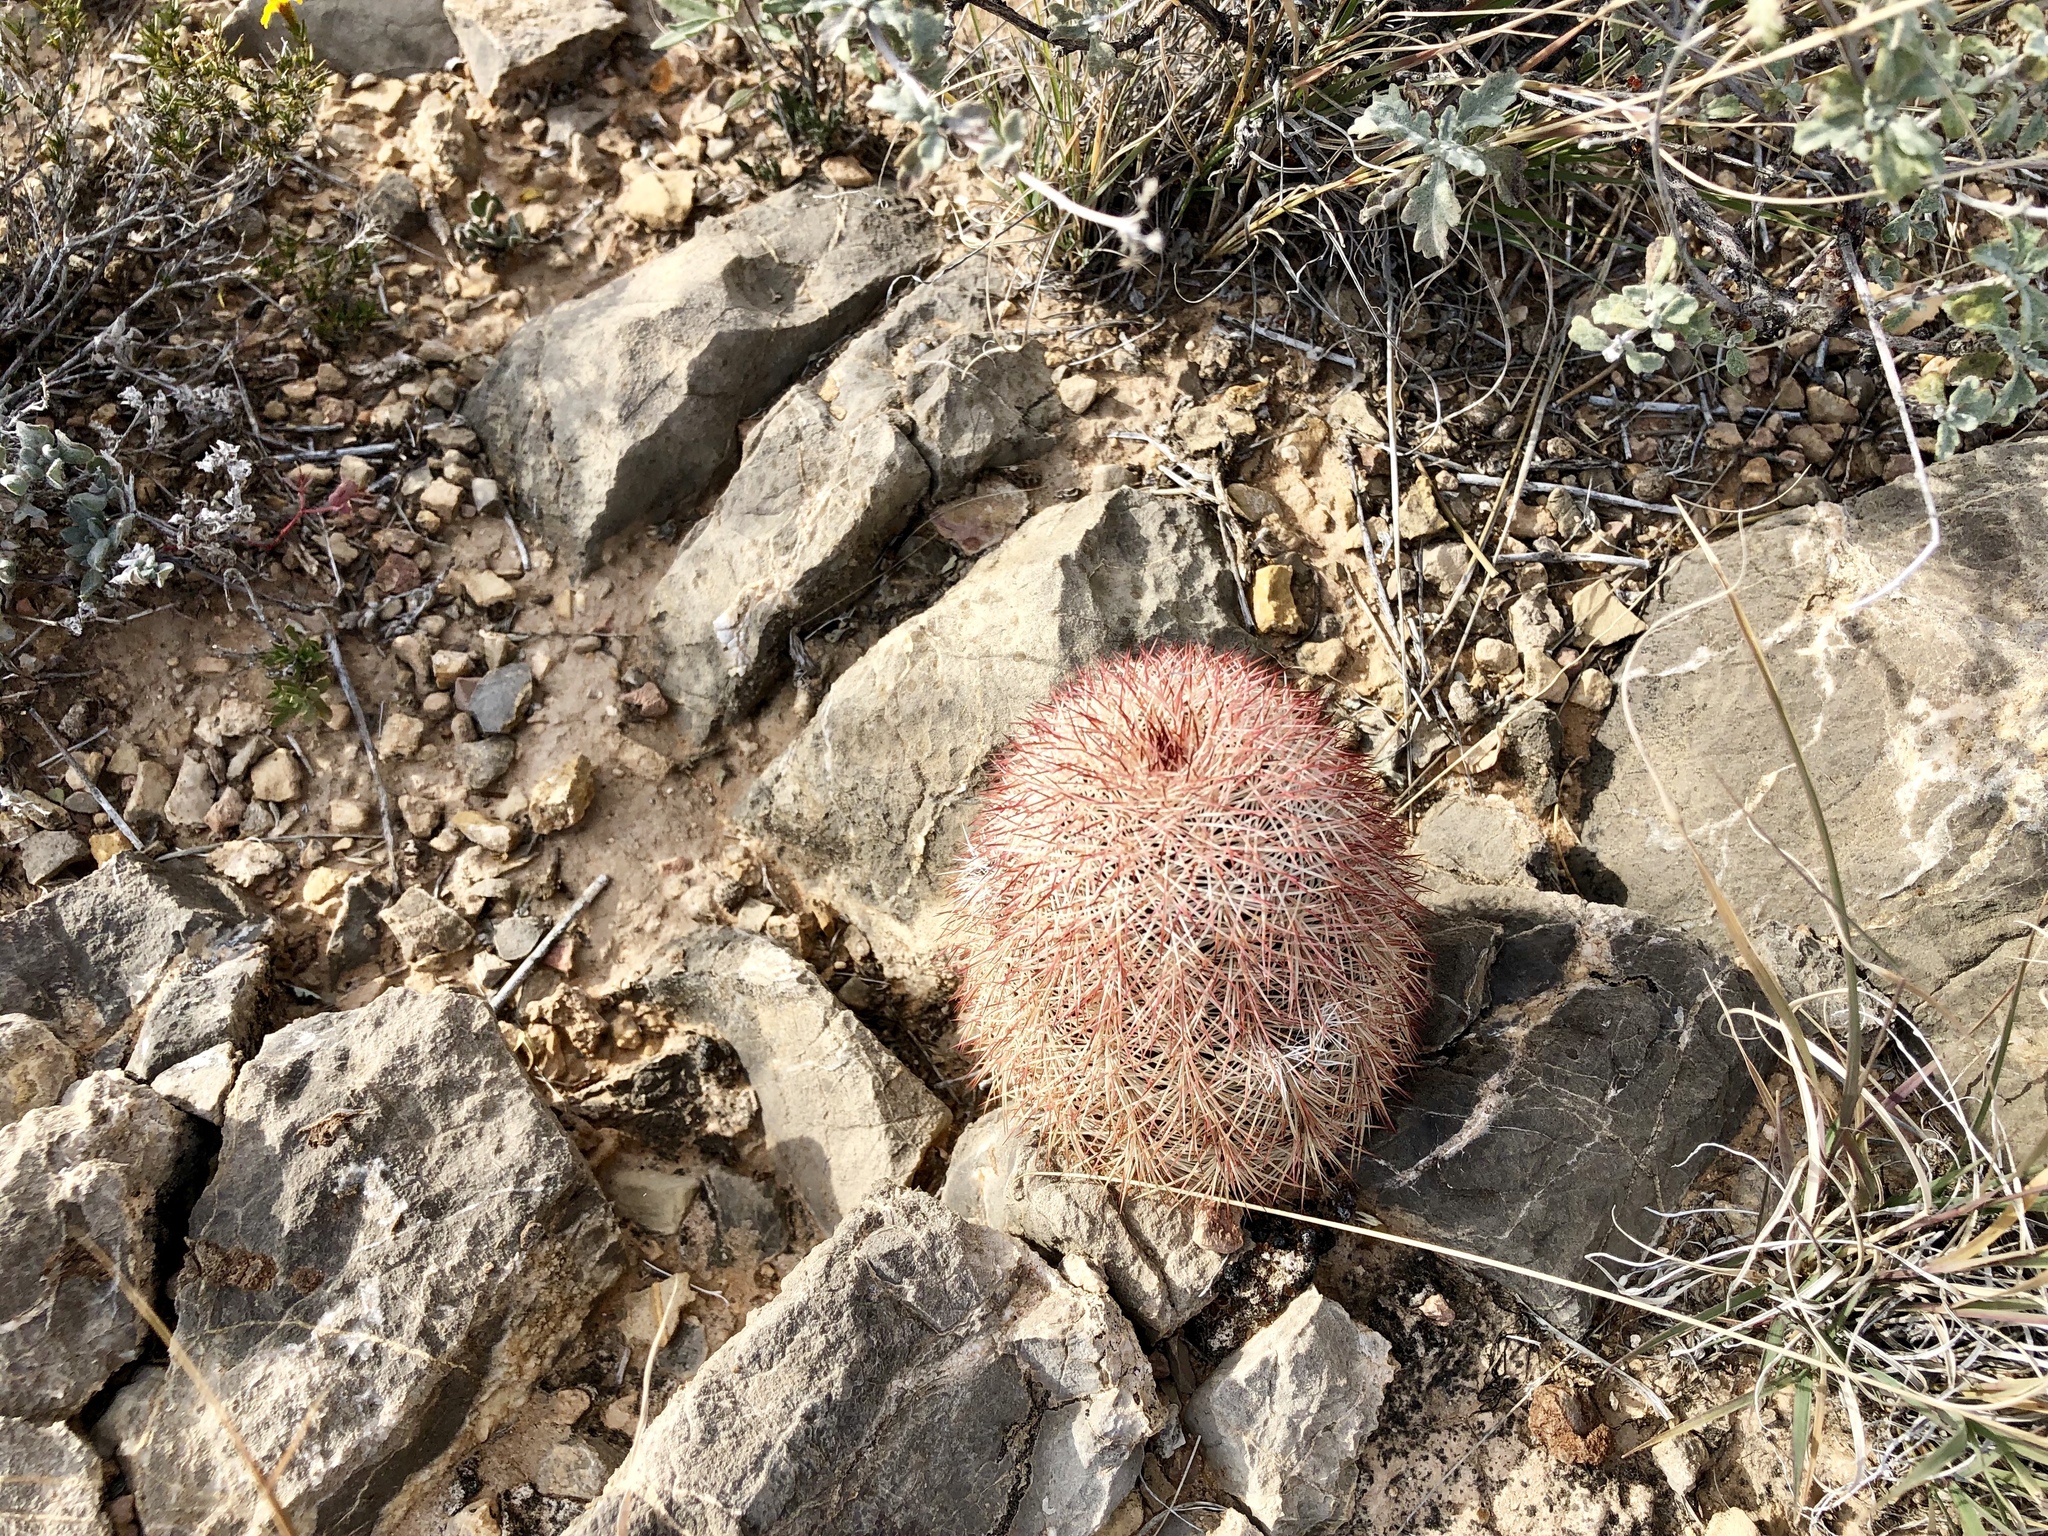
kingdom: Plantae
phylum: Tracheophyta
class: Magnoliopsida
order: Caryophyllales
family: Cactaceae
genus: Echinocereus
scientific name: Echinocereus dasyacanthus
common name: Spiny hedgehog cactus
